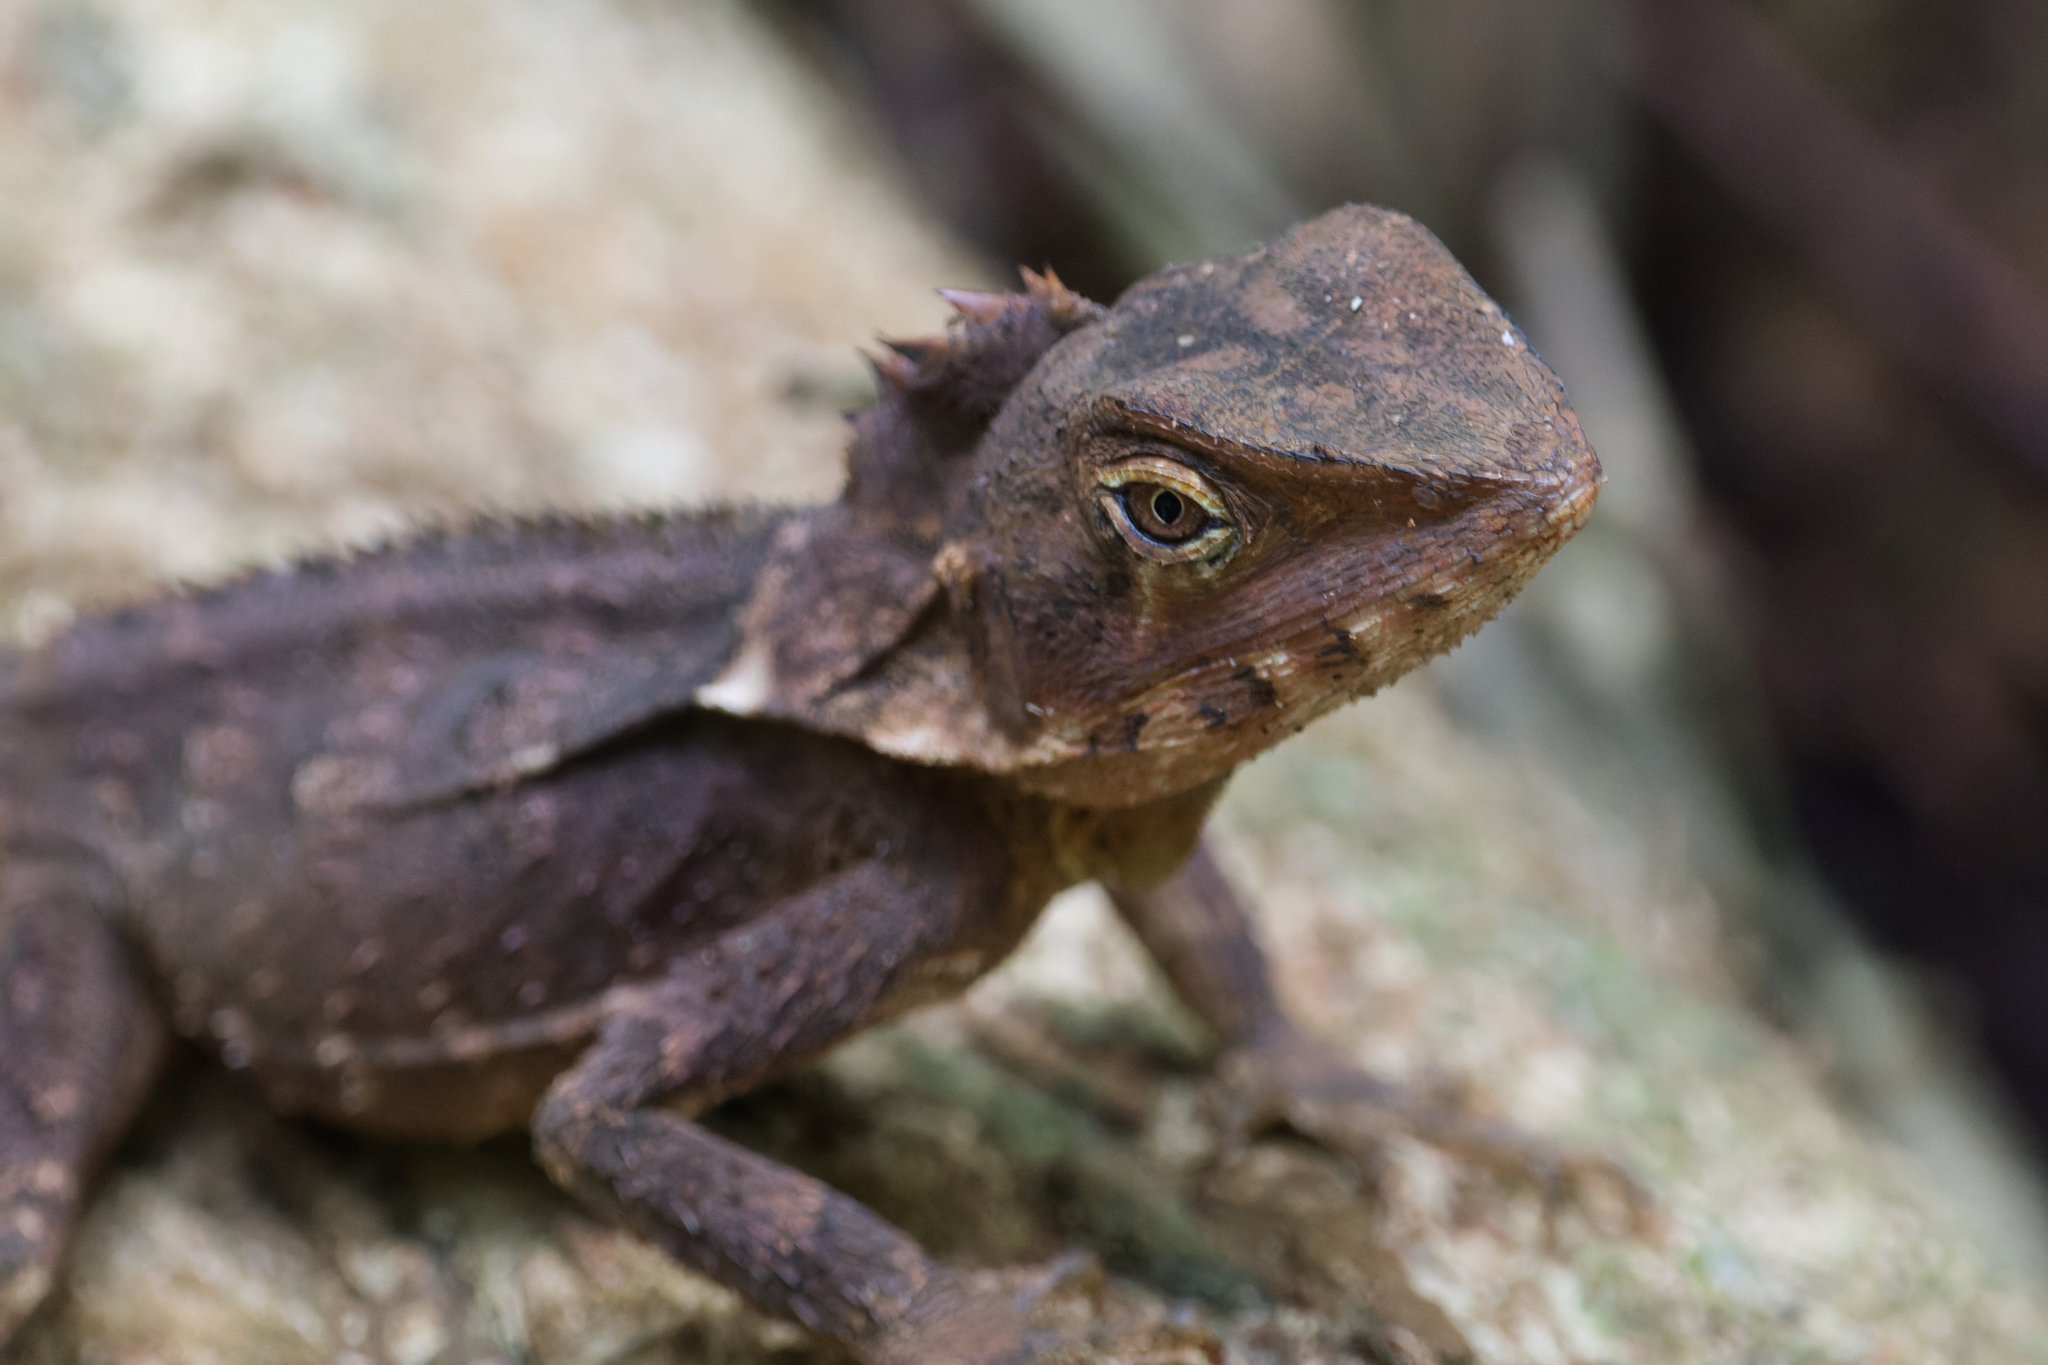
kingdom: Animalia
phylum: Chordata
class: Squamata
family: Agamidae
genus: Lophosaurus
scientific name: Lophosaurus spinipes
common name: Southern angle-headed dragon
